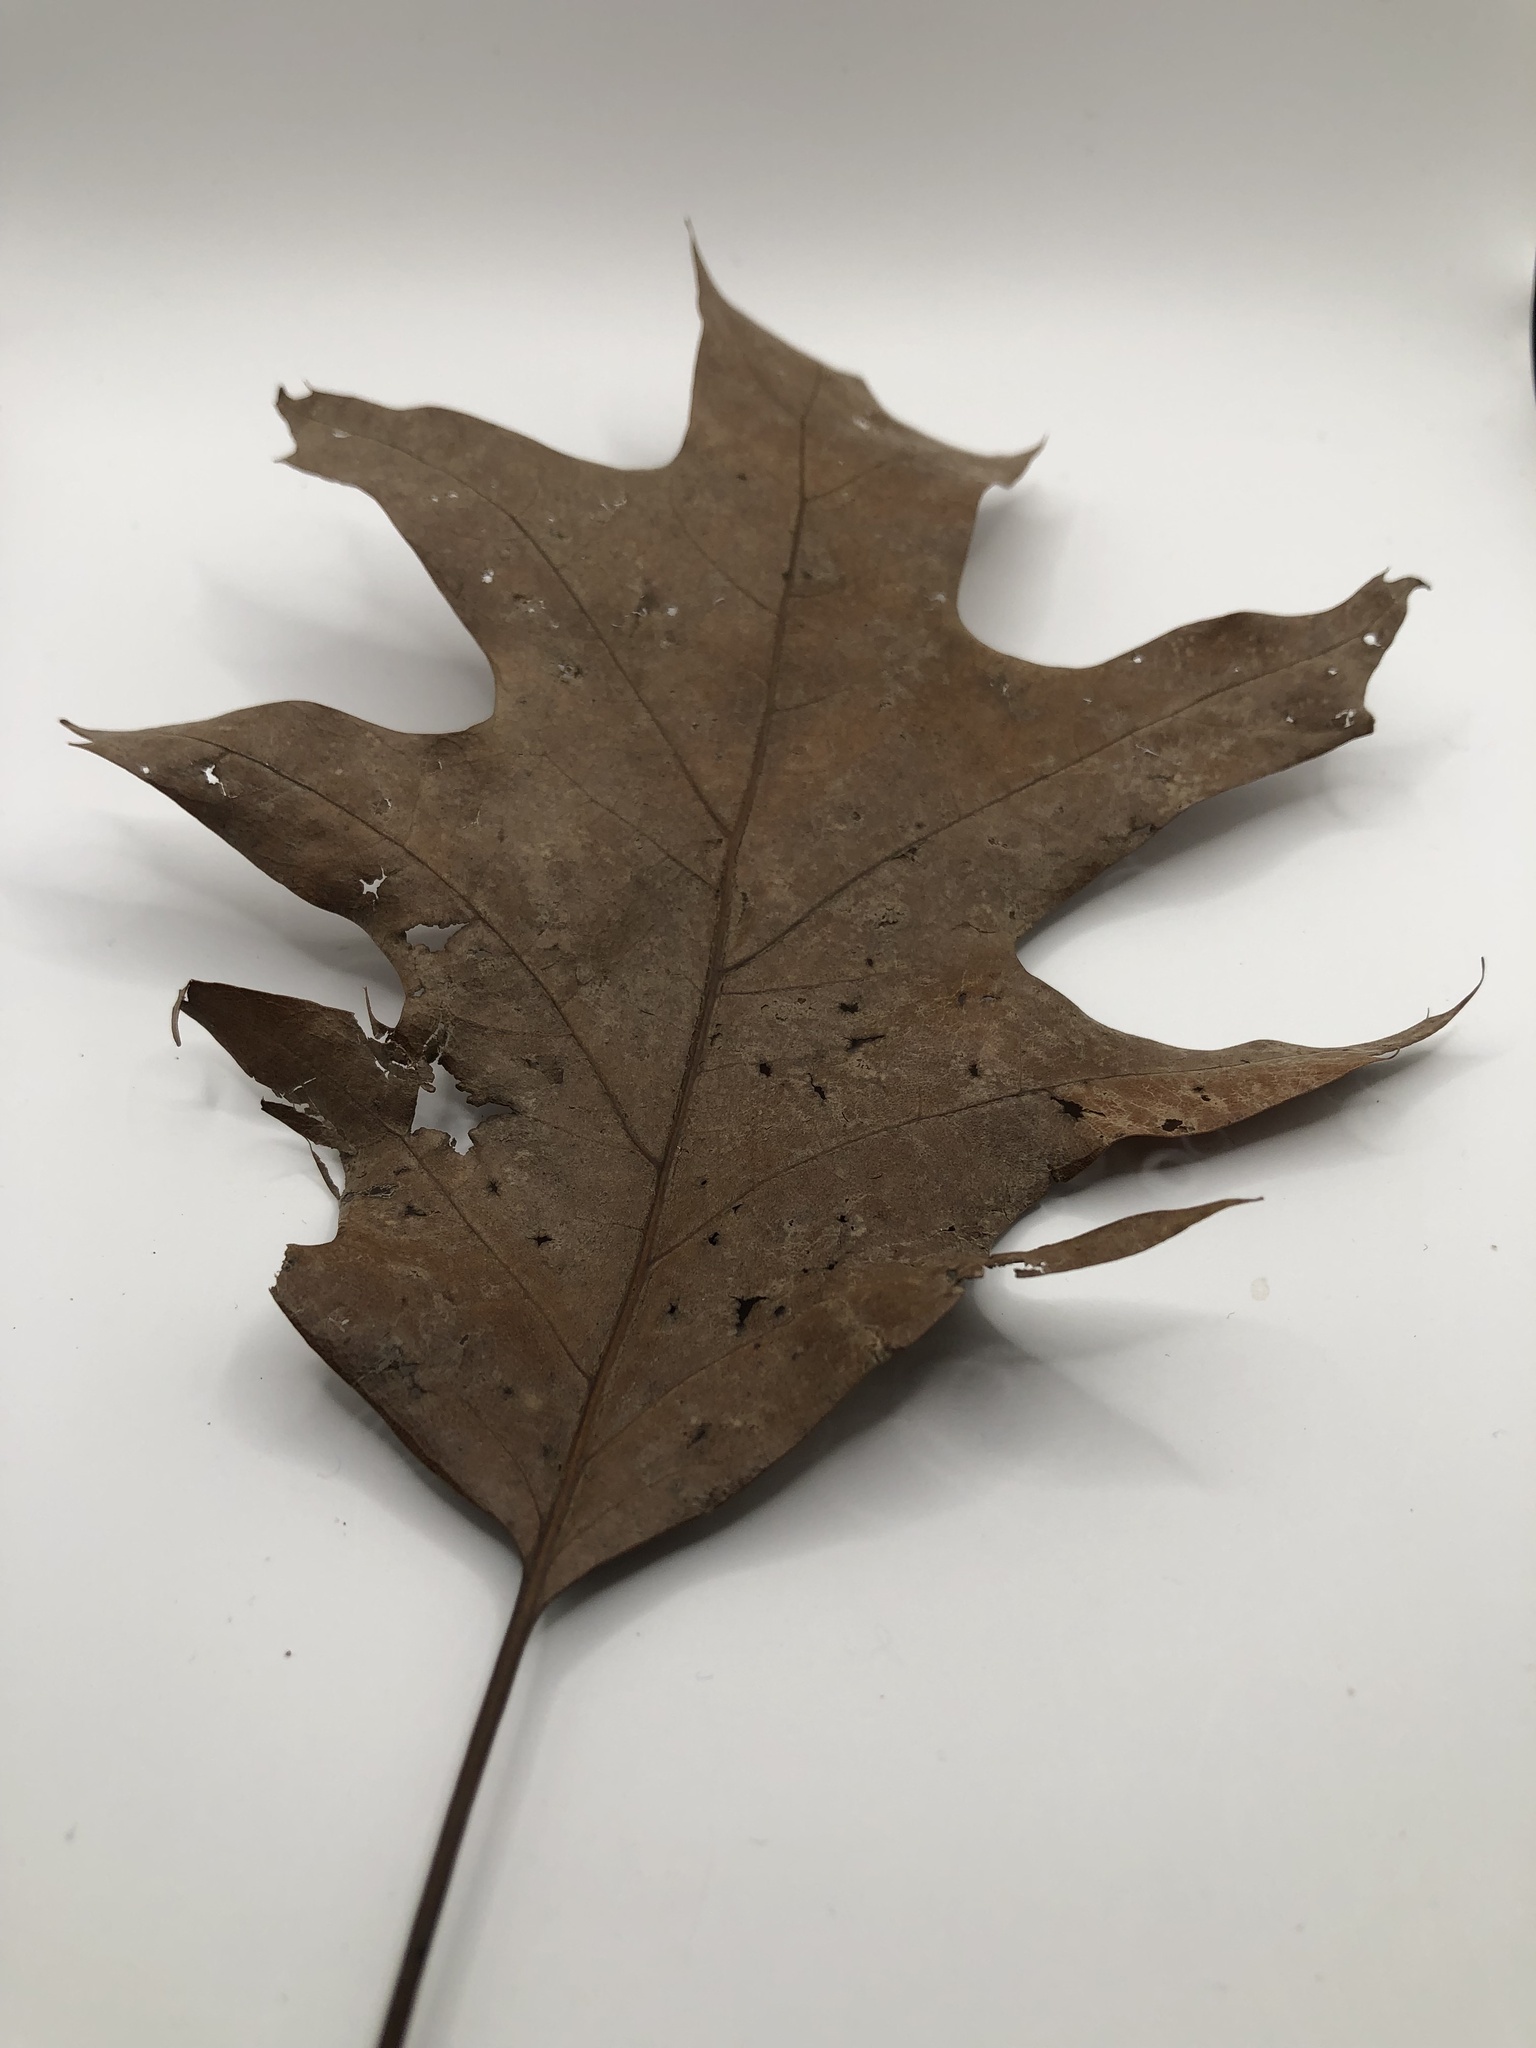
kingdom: Plantae
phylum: Tracheophyta
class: Magnoliopsida
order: Fagales
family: Fagaceae
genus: Quercus
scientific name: Quercus rubra
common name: Red oak
